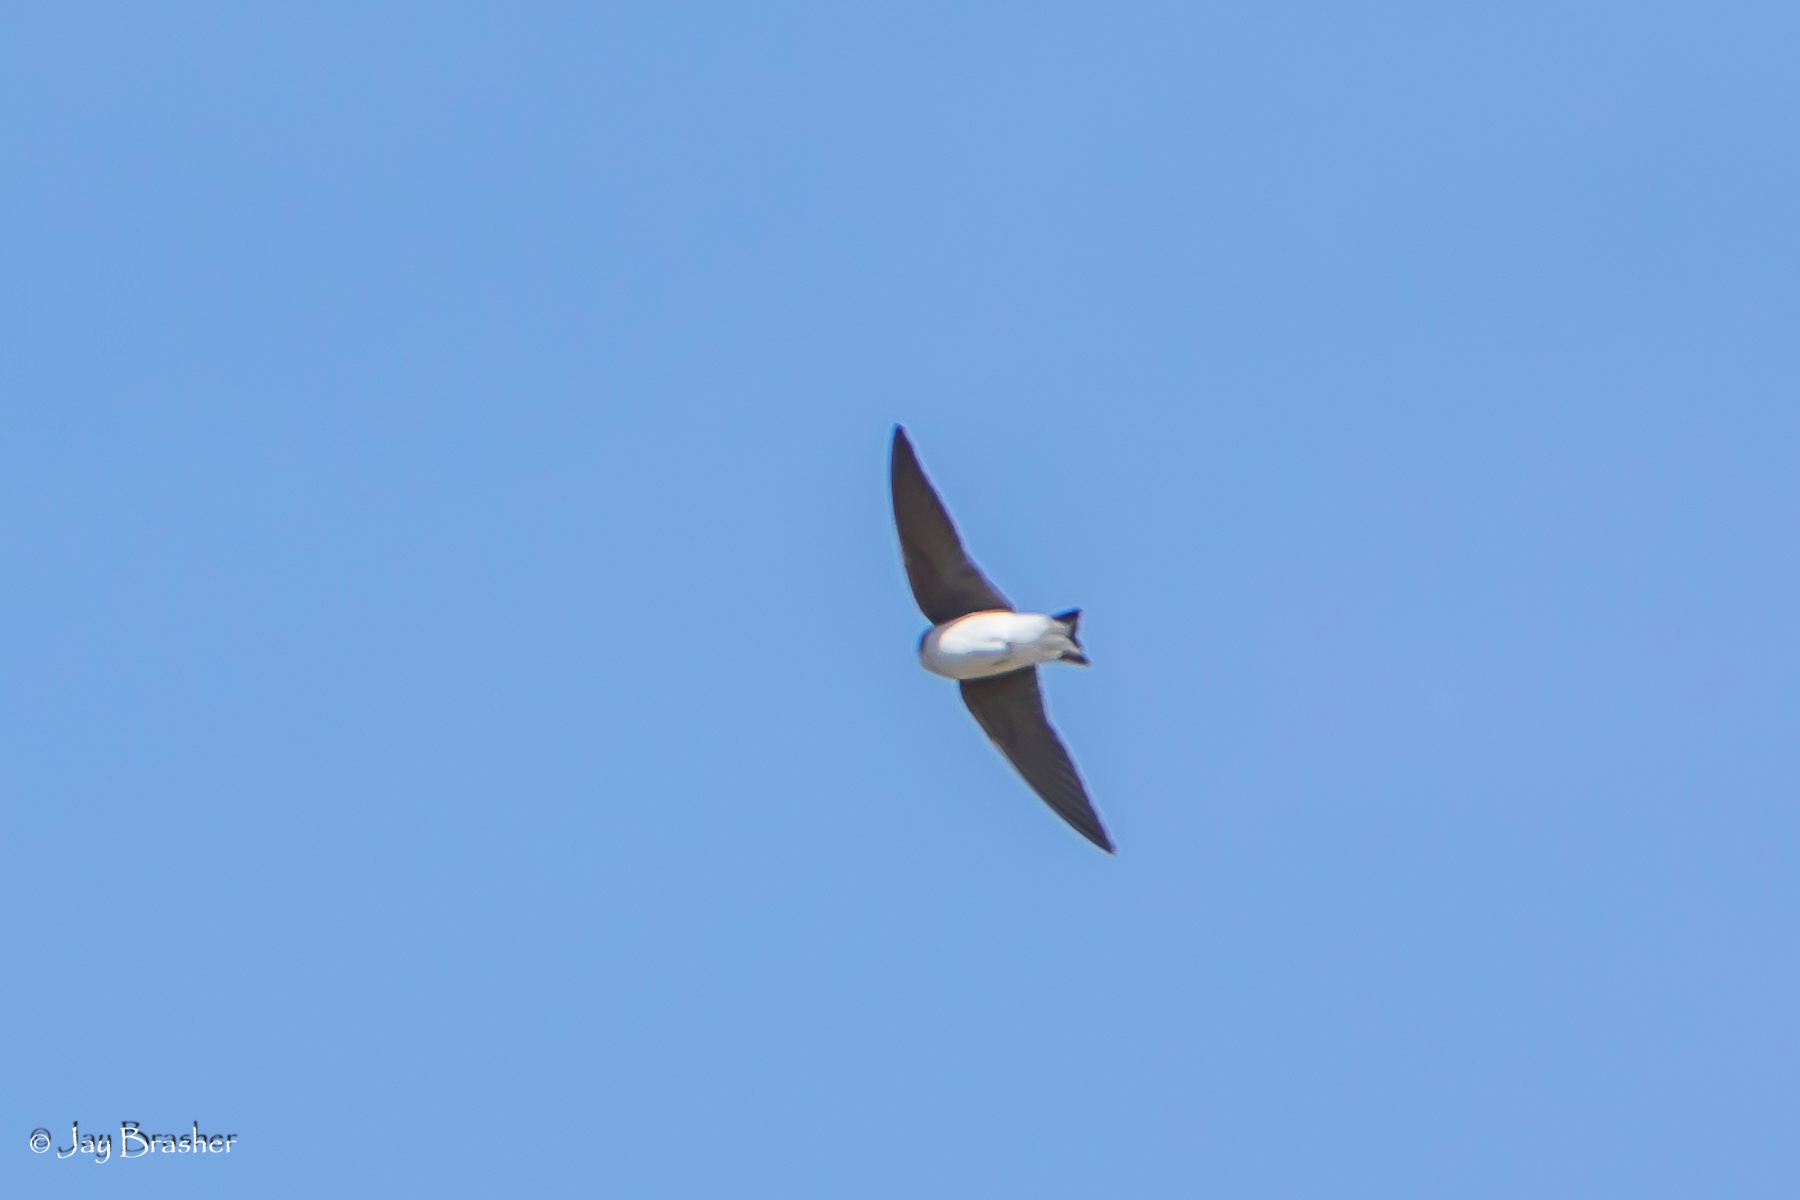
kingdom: Animalia
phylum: Chordata
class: Aves
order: Passeriformes
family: Hirundinidae
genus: Tachycineta
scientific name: Tachycineta bicolor
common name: Tree swallow
